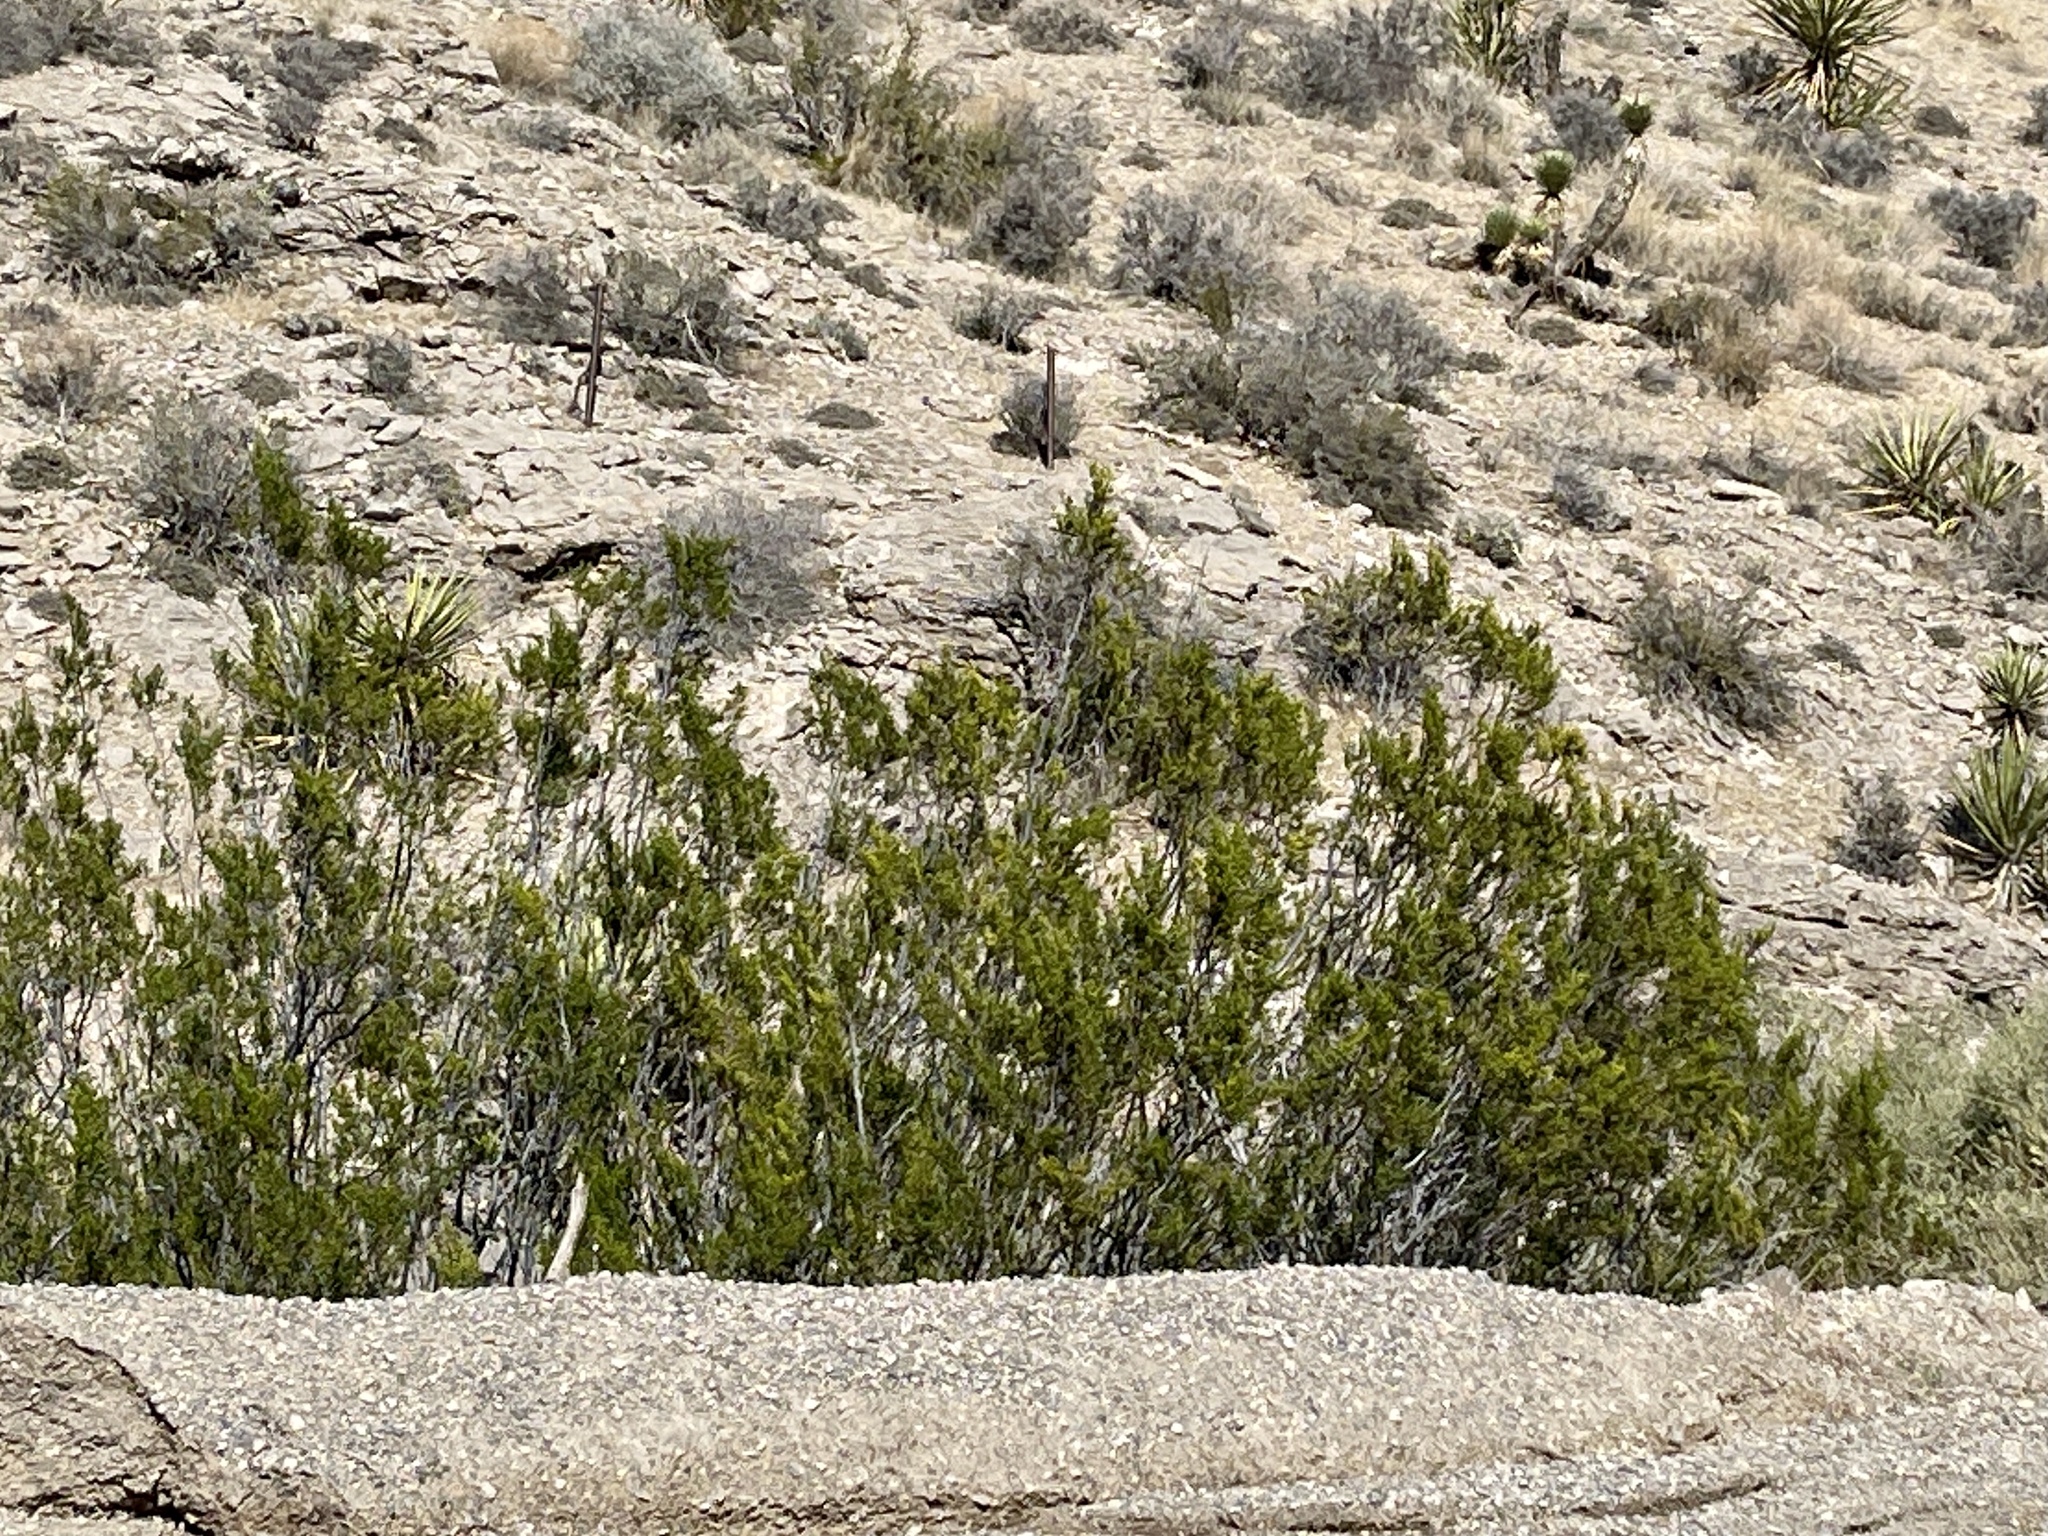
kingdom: Plantae
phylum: Tracheophyta
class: Magnoliopsida
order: Zygophyllales
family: Zygophyllaceae
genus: Larrea
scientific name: Larrea tridentata
